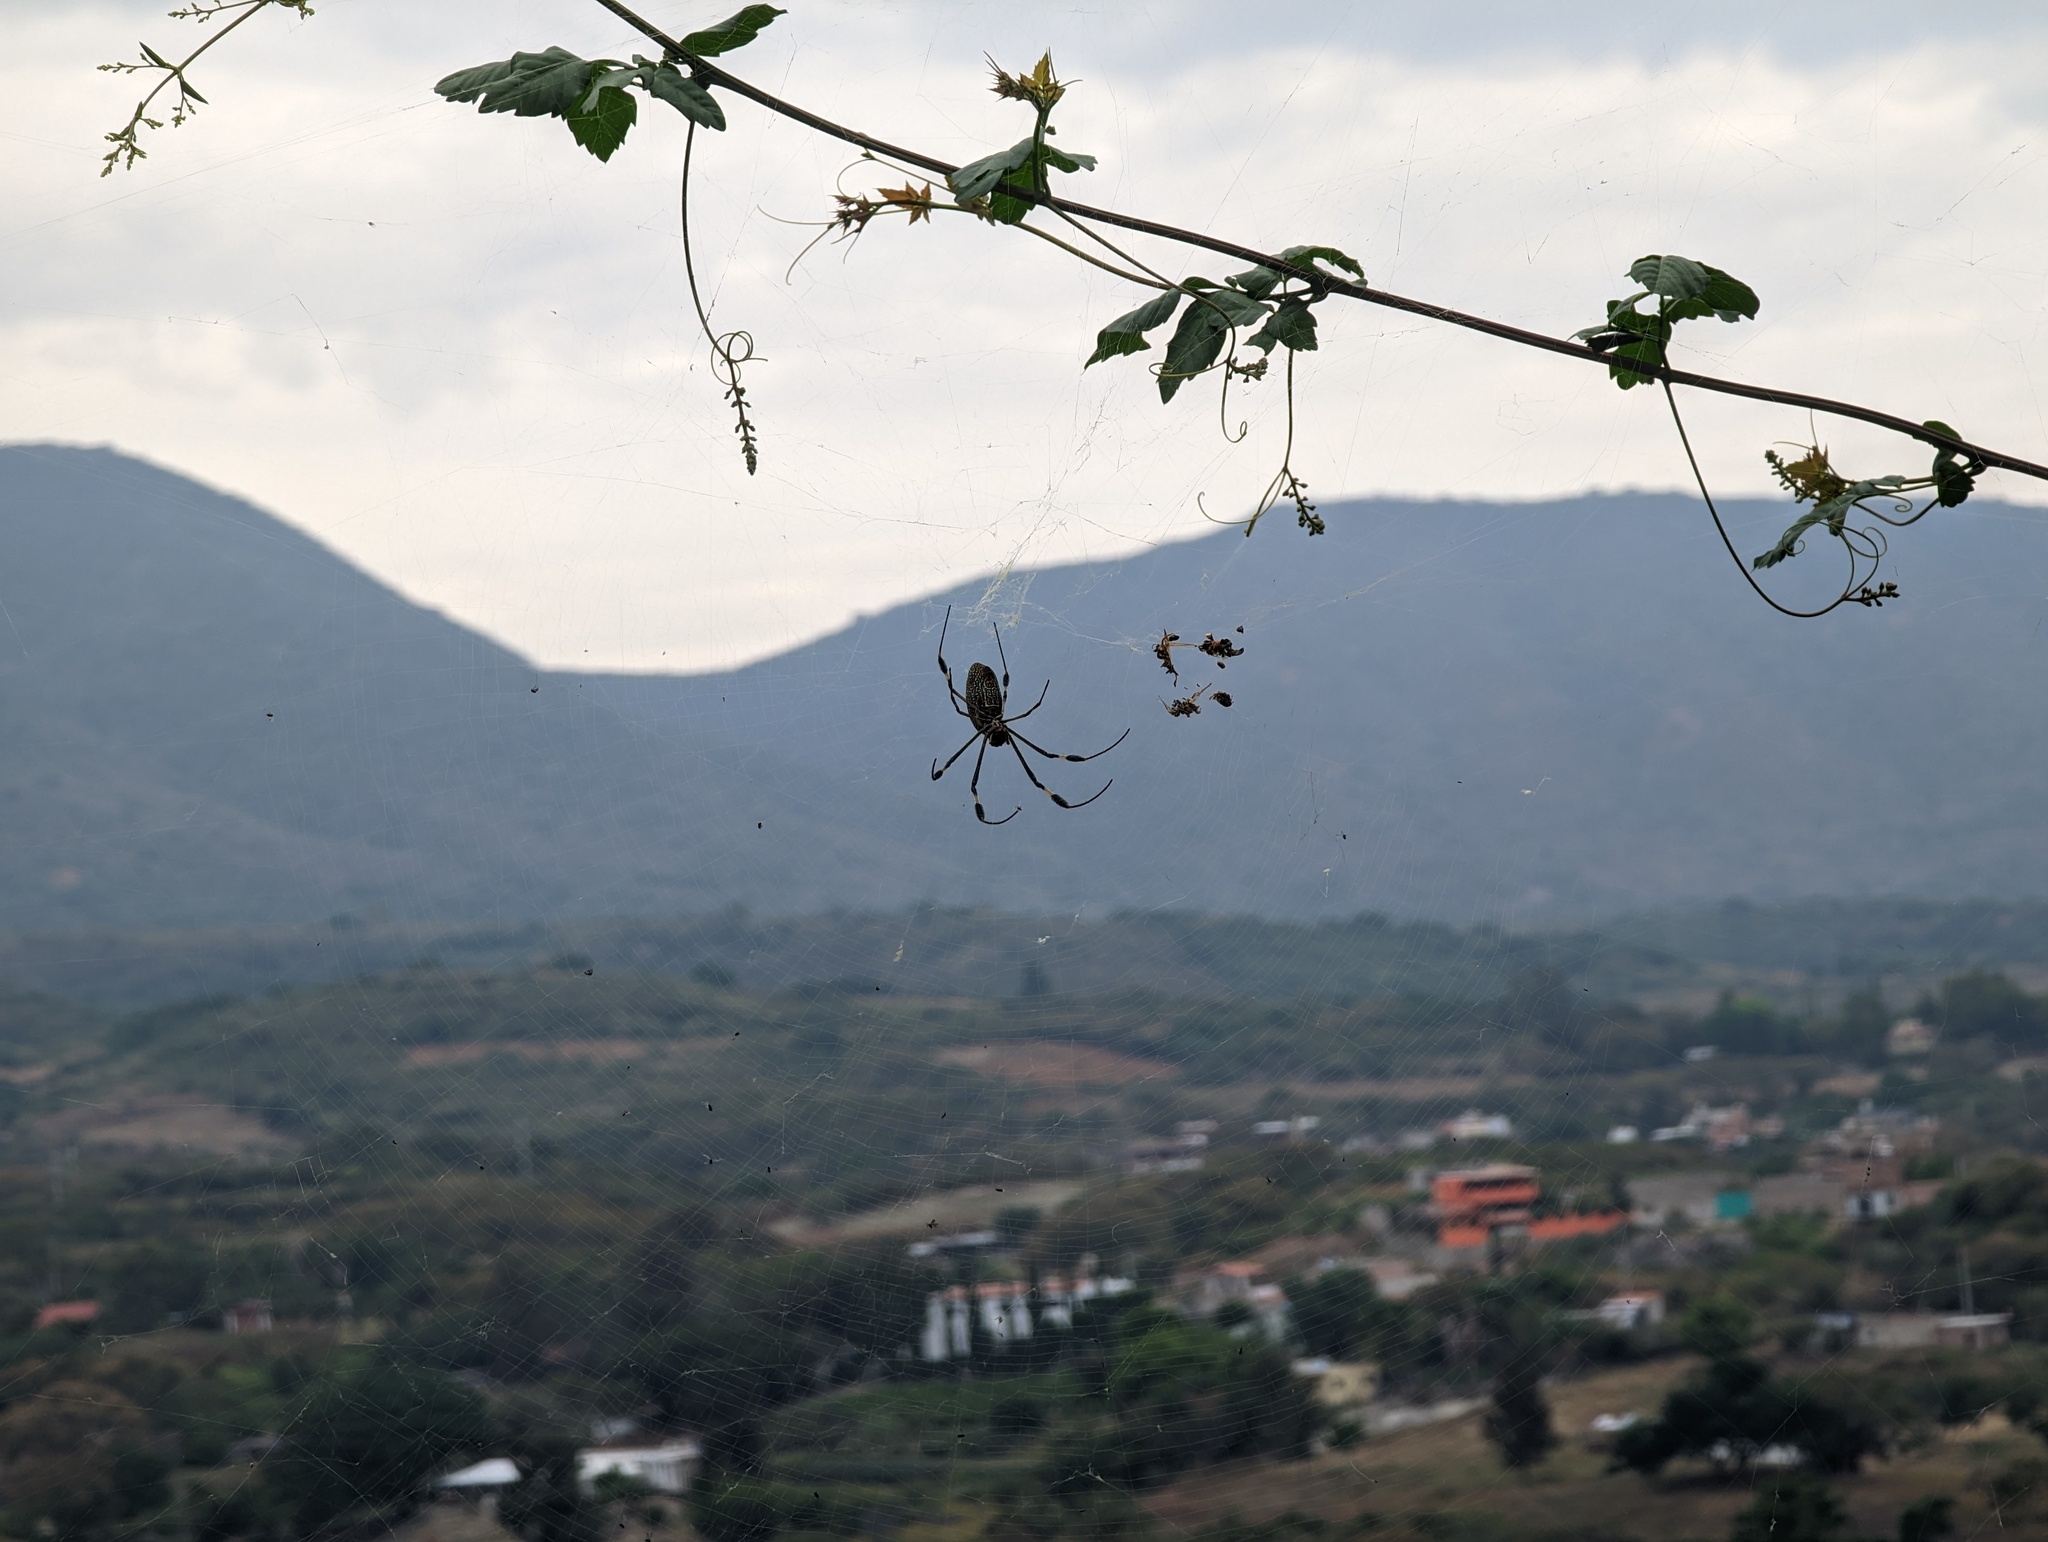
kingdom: Animalia
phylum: Arthropoda
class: Arachnida
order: Araneae
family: Araneidae
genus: Trichonephila
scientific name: Trichonephila clavipes
